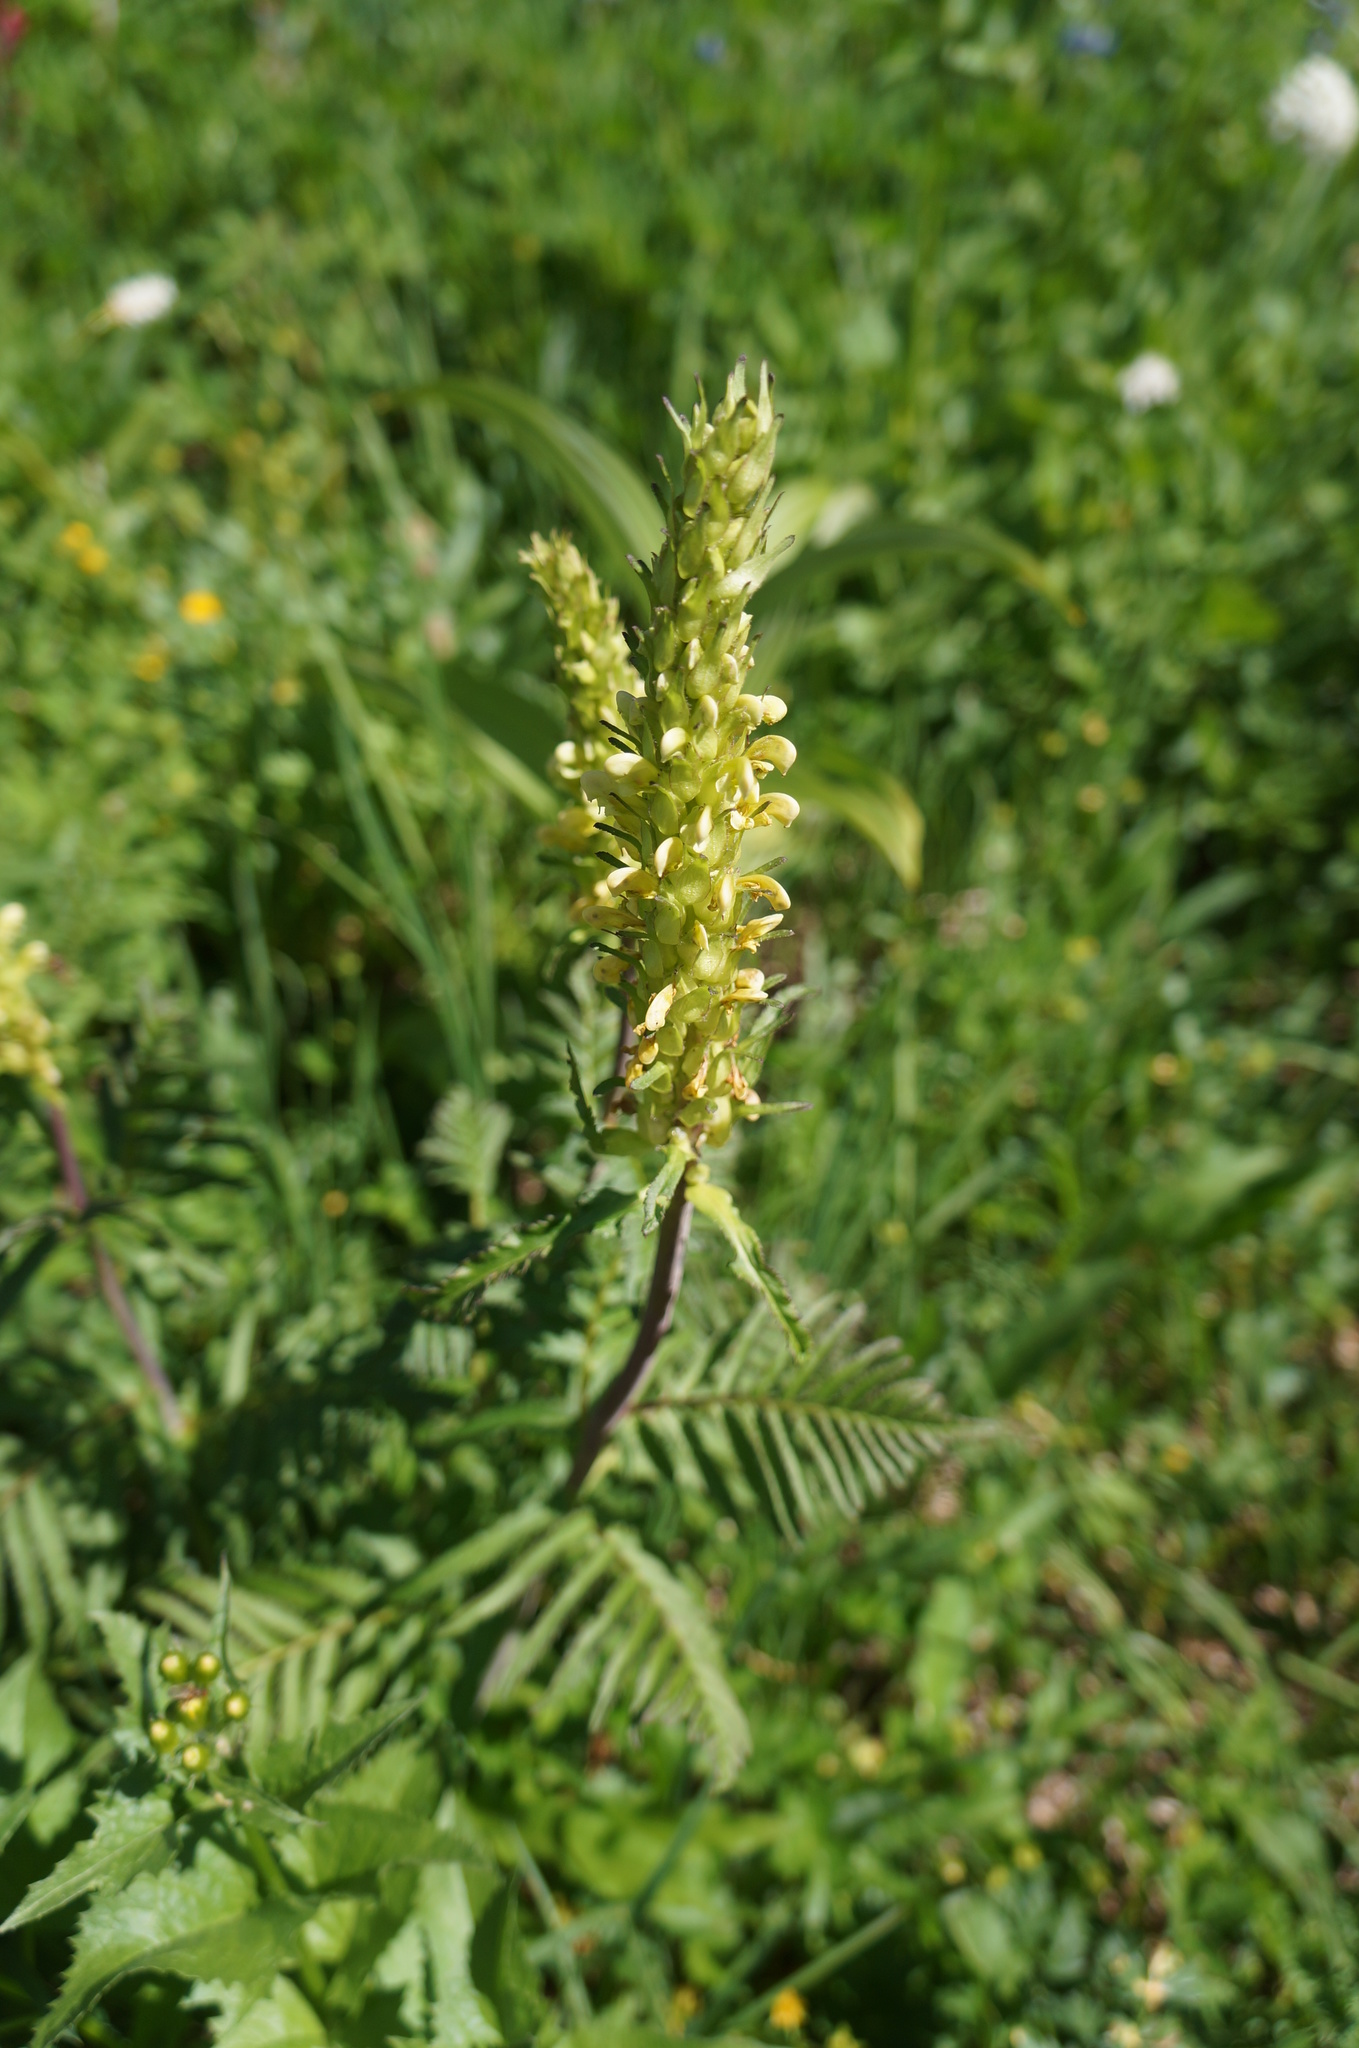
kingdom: Plantae
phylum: Tracheophyta
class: Magnoliopsida
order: Lamiales
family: Orobanchaceae
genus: Pedicularis
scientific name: Pedicularis bracteosa
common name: Bracted lousewort
